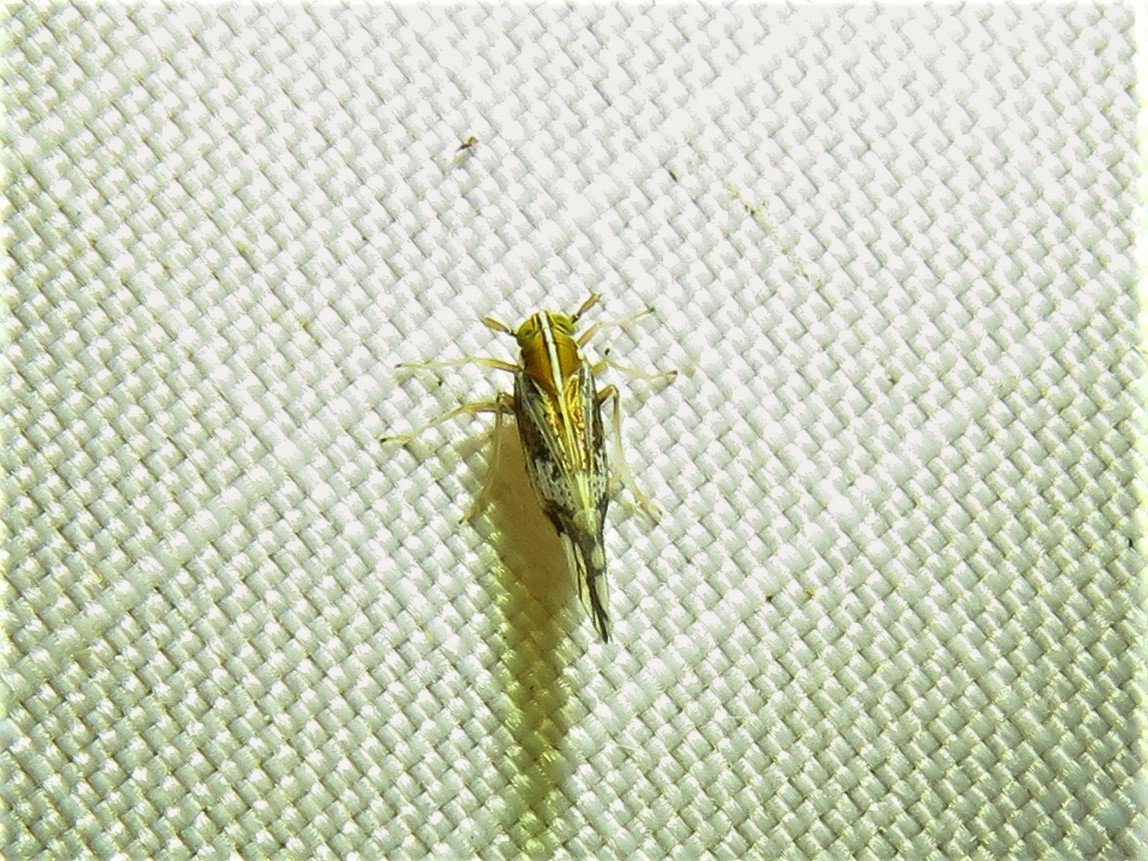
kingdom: Animalia
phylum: Arthropoda
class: Insecta
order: Hemiptera
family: Delphacidae
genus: Liburniella
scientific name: Liburniella ornata
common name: Ornate planthopper
